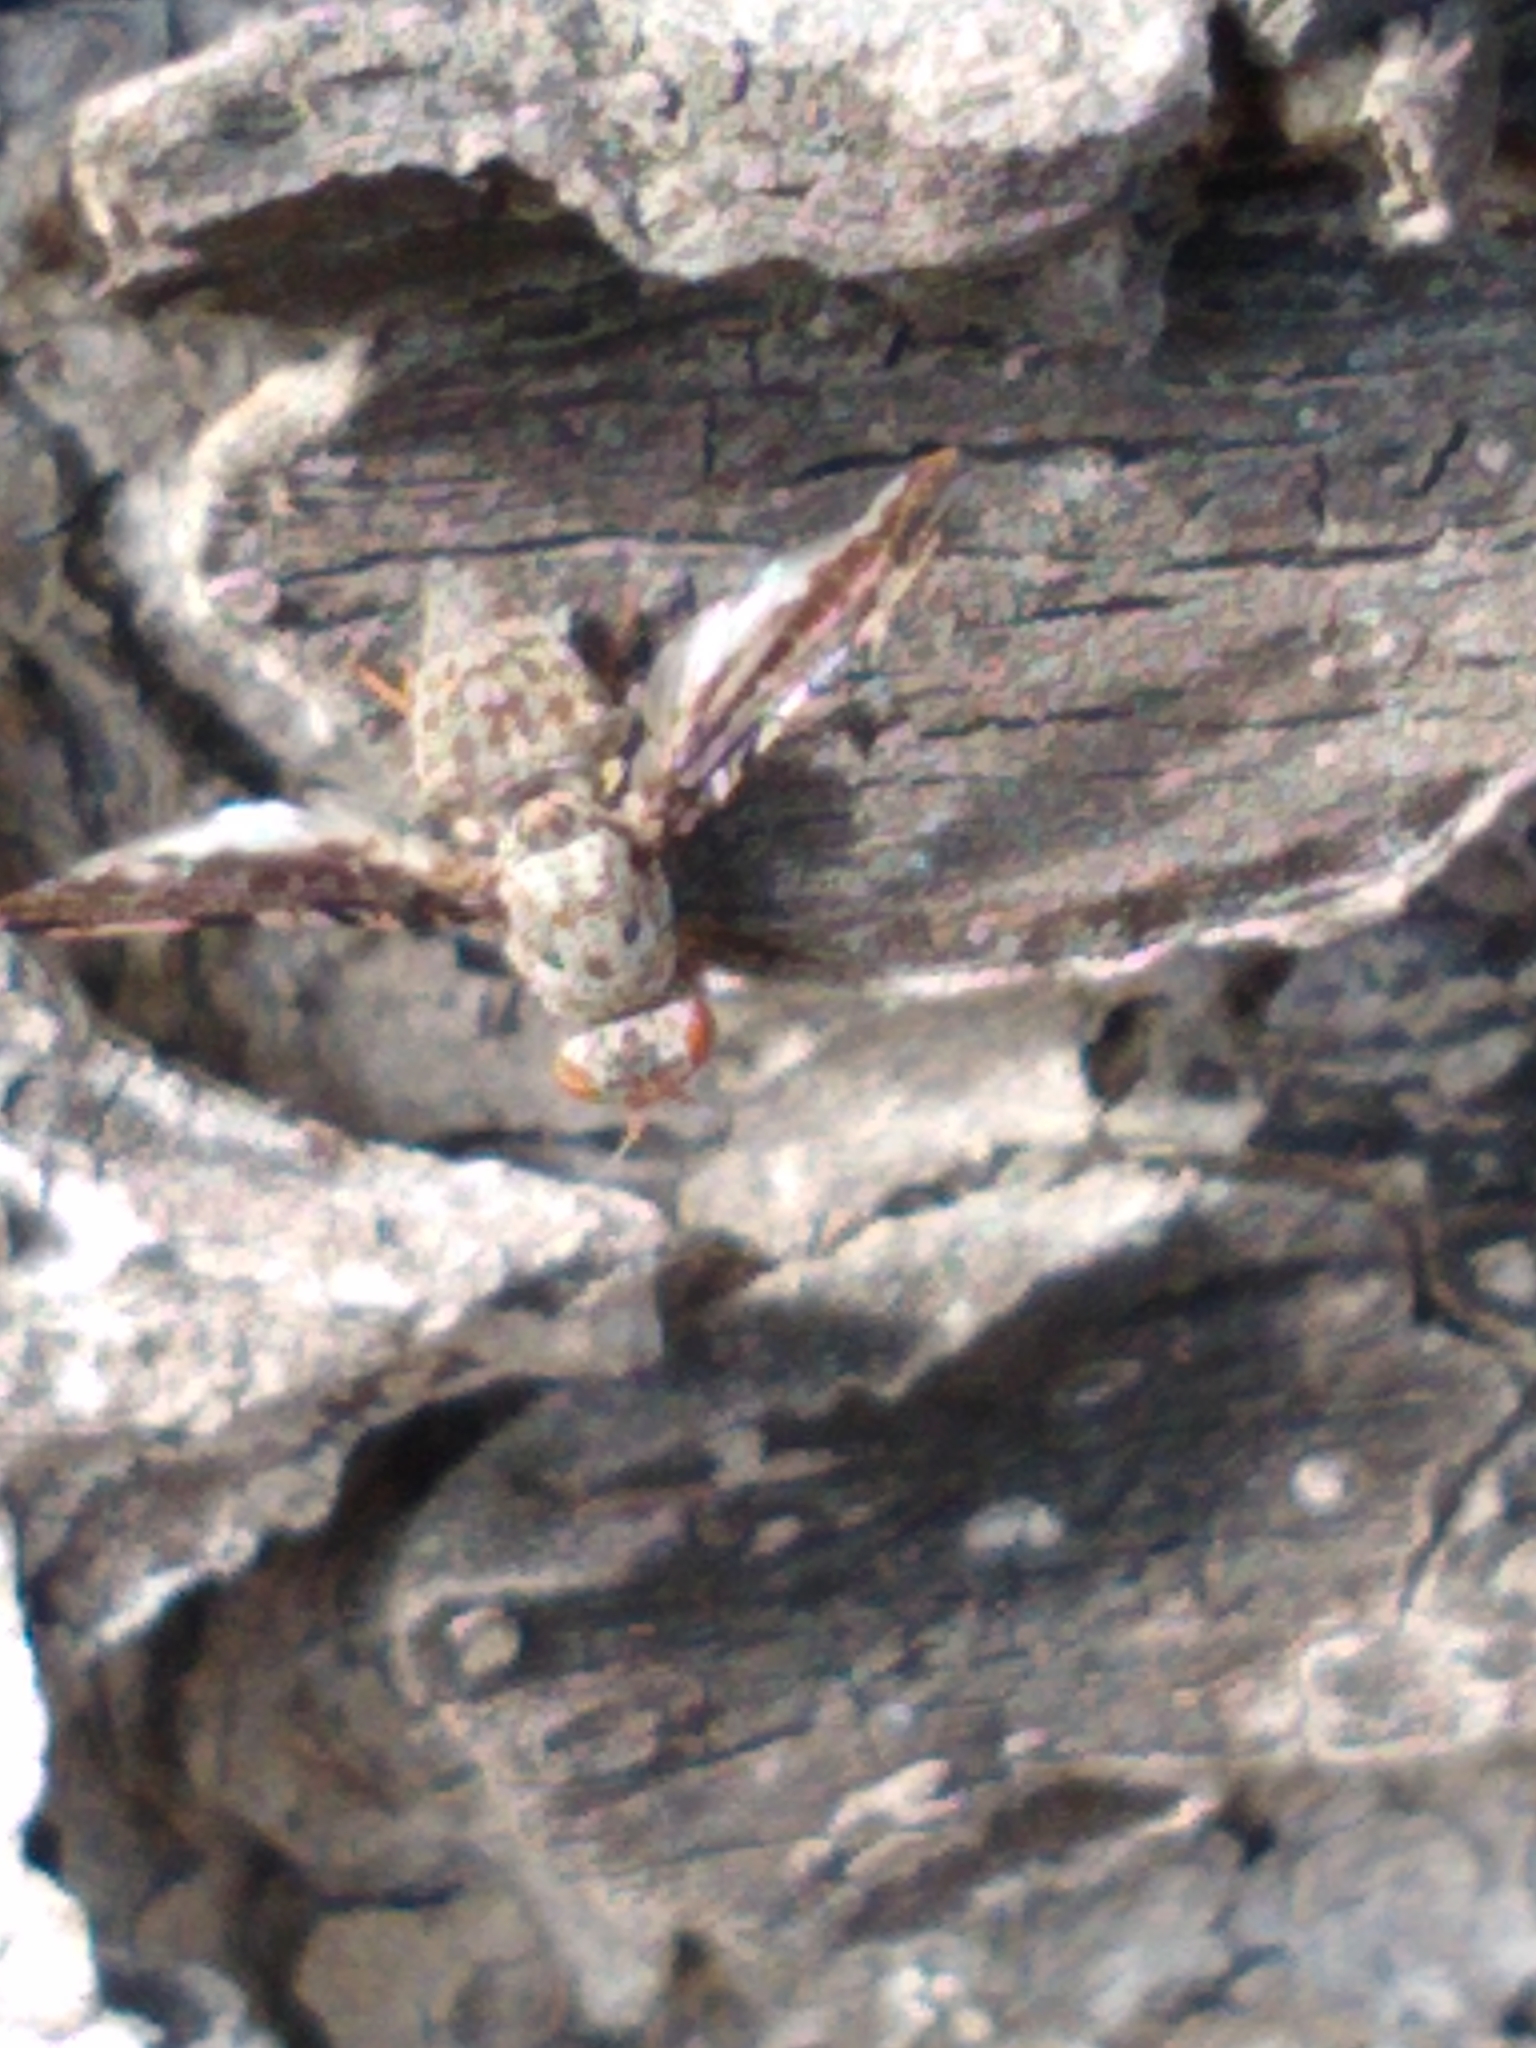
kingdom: Animalia
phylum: Arthropoda
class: Insecta
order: Diptera
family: Ulidiidae
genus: Callopistromyia
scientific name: Callopistromyia strigula
